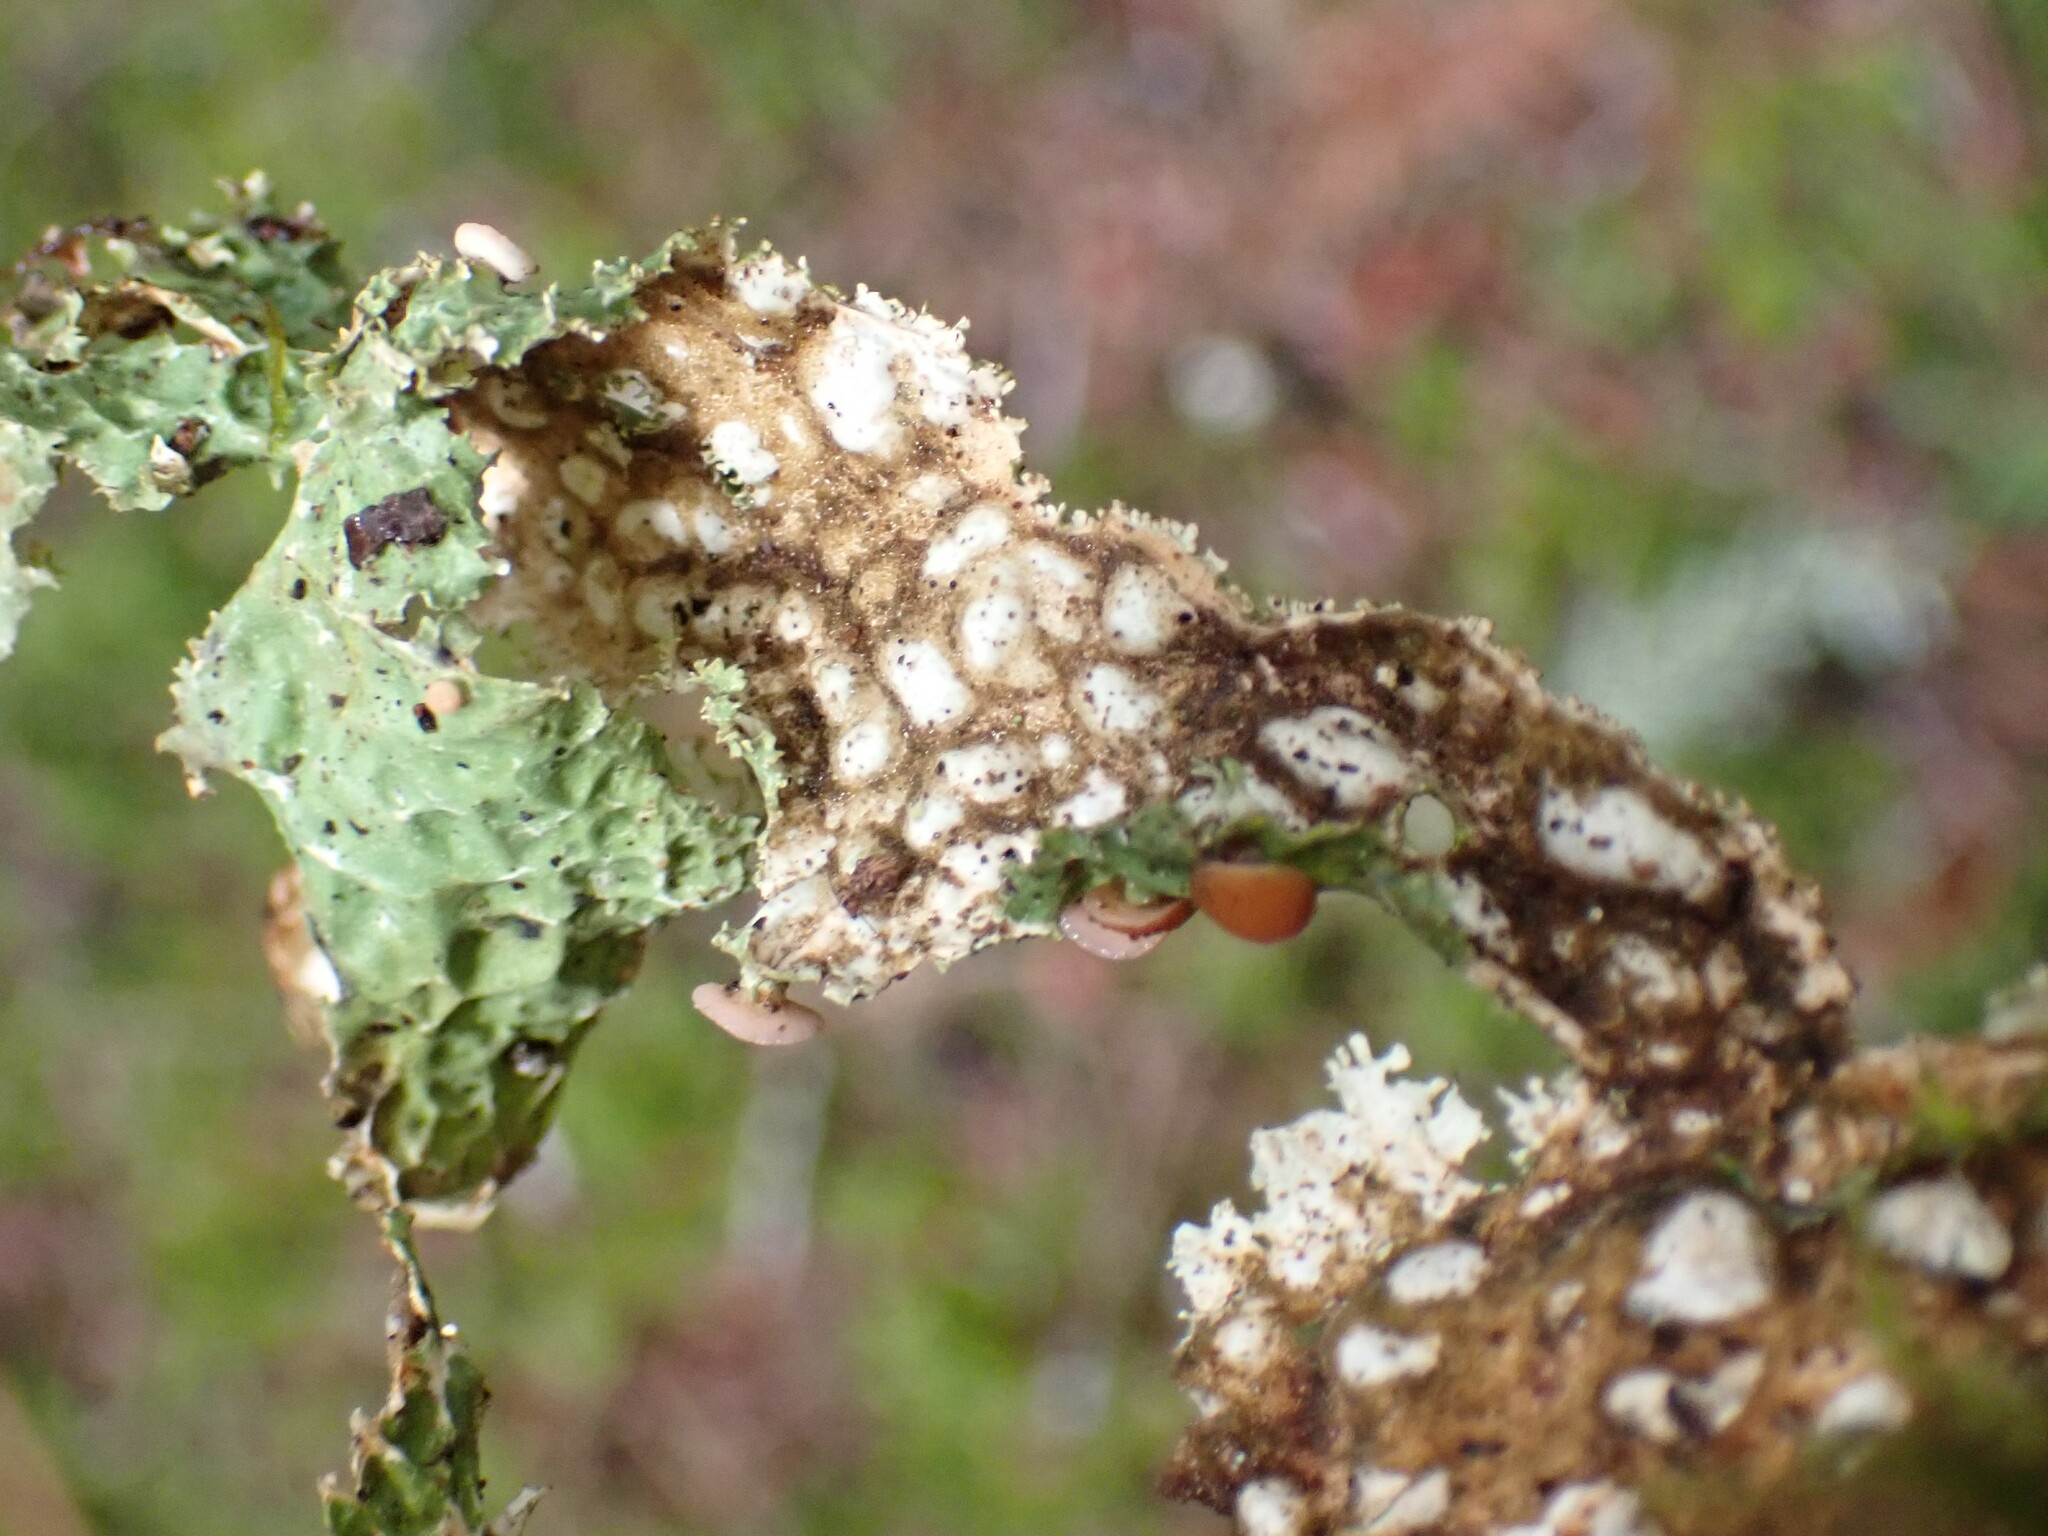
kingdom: Fungi
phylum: Ascomycota
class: Lecanoromycetes
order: Peltigerales
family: Lobariaceae
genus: Lobaria
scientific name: Lobaria oregana
